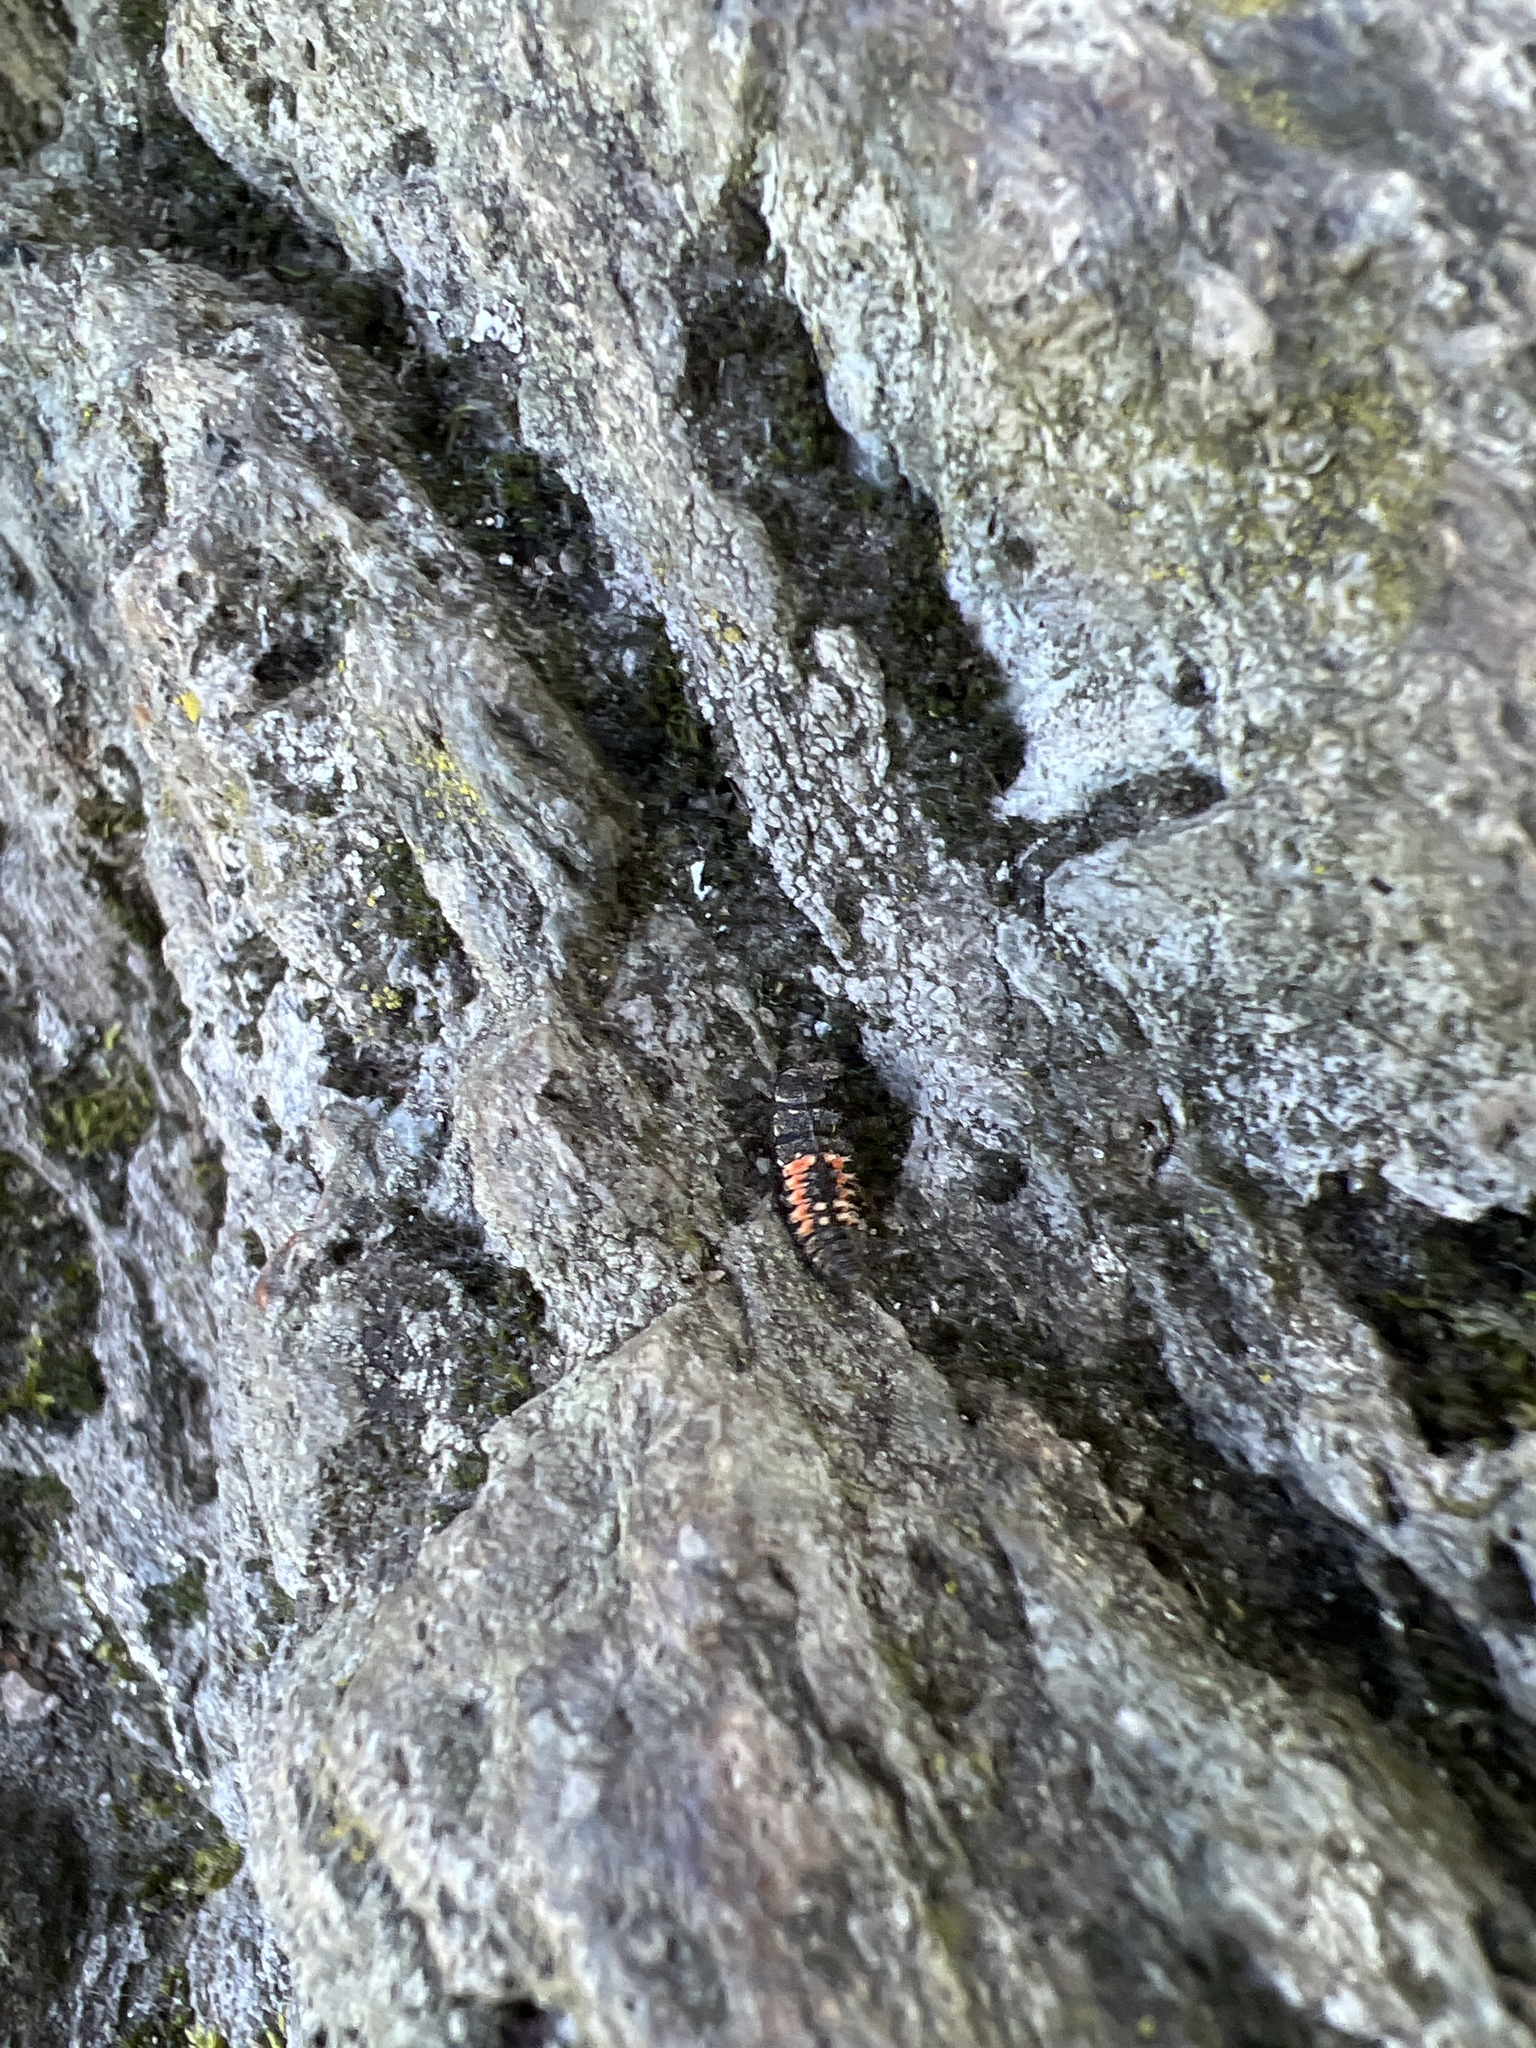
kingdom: Animalia
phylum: Arthropoda
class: Insecta
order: Coleoptera
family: Coccinellidae
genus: Harmonia
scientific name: Harmonia axyridis
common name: Harlequin ladybird
